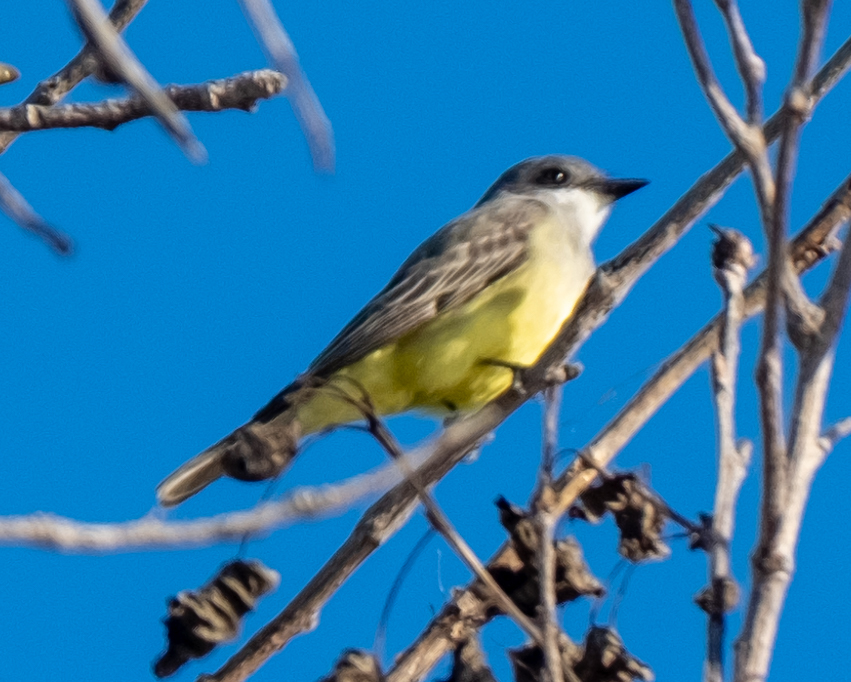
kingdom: Animalia
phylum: Chordata
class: Aves
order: Passeriformes
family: Tyrannidae
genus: Tyrannus
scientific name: Tyrannus vociferans
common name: Cassin's kingbird
